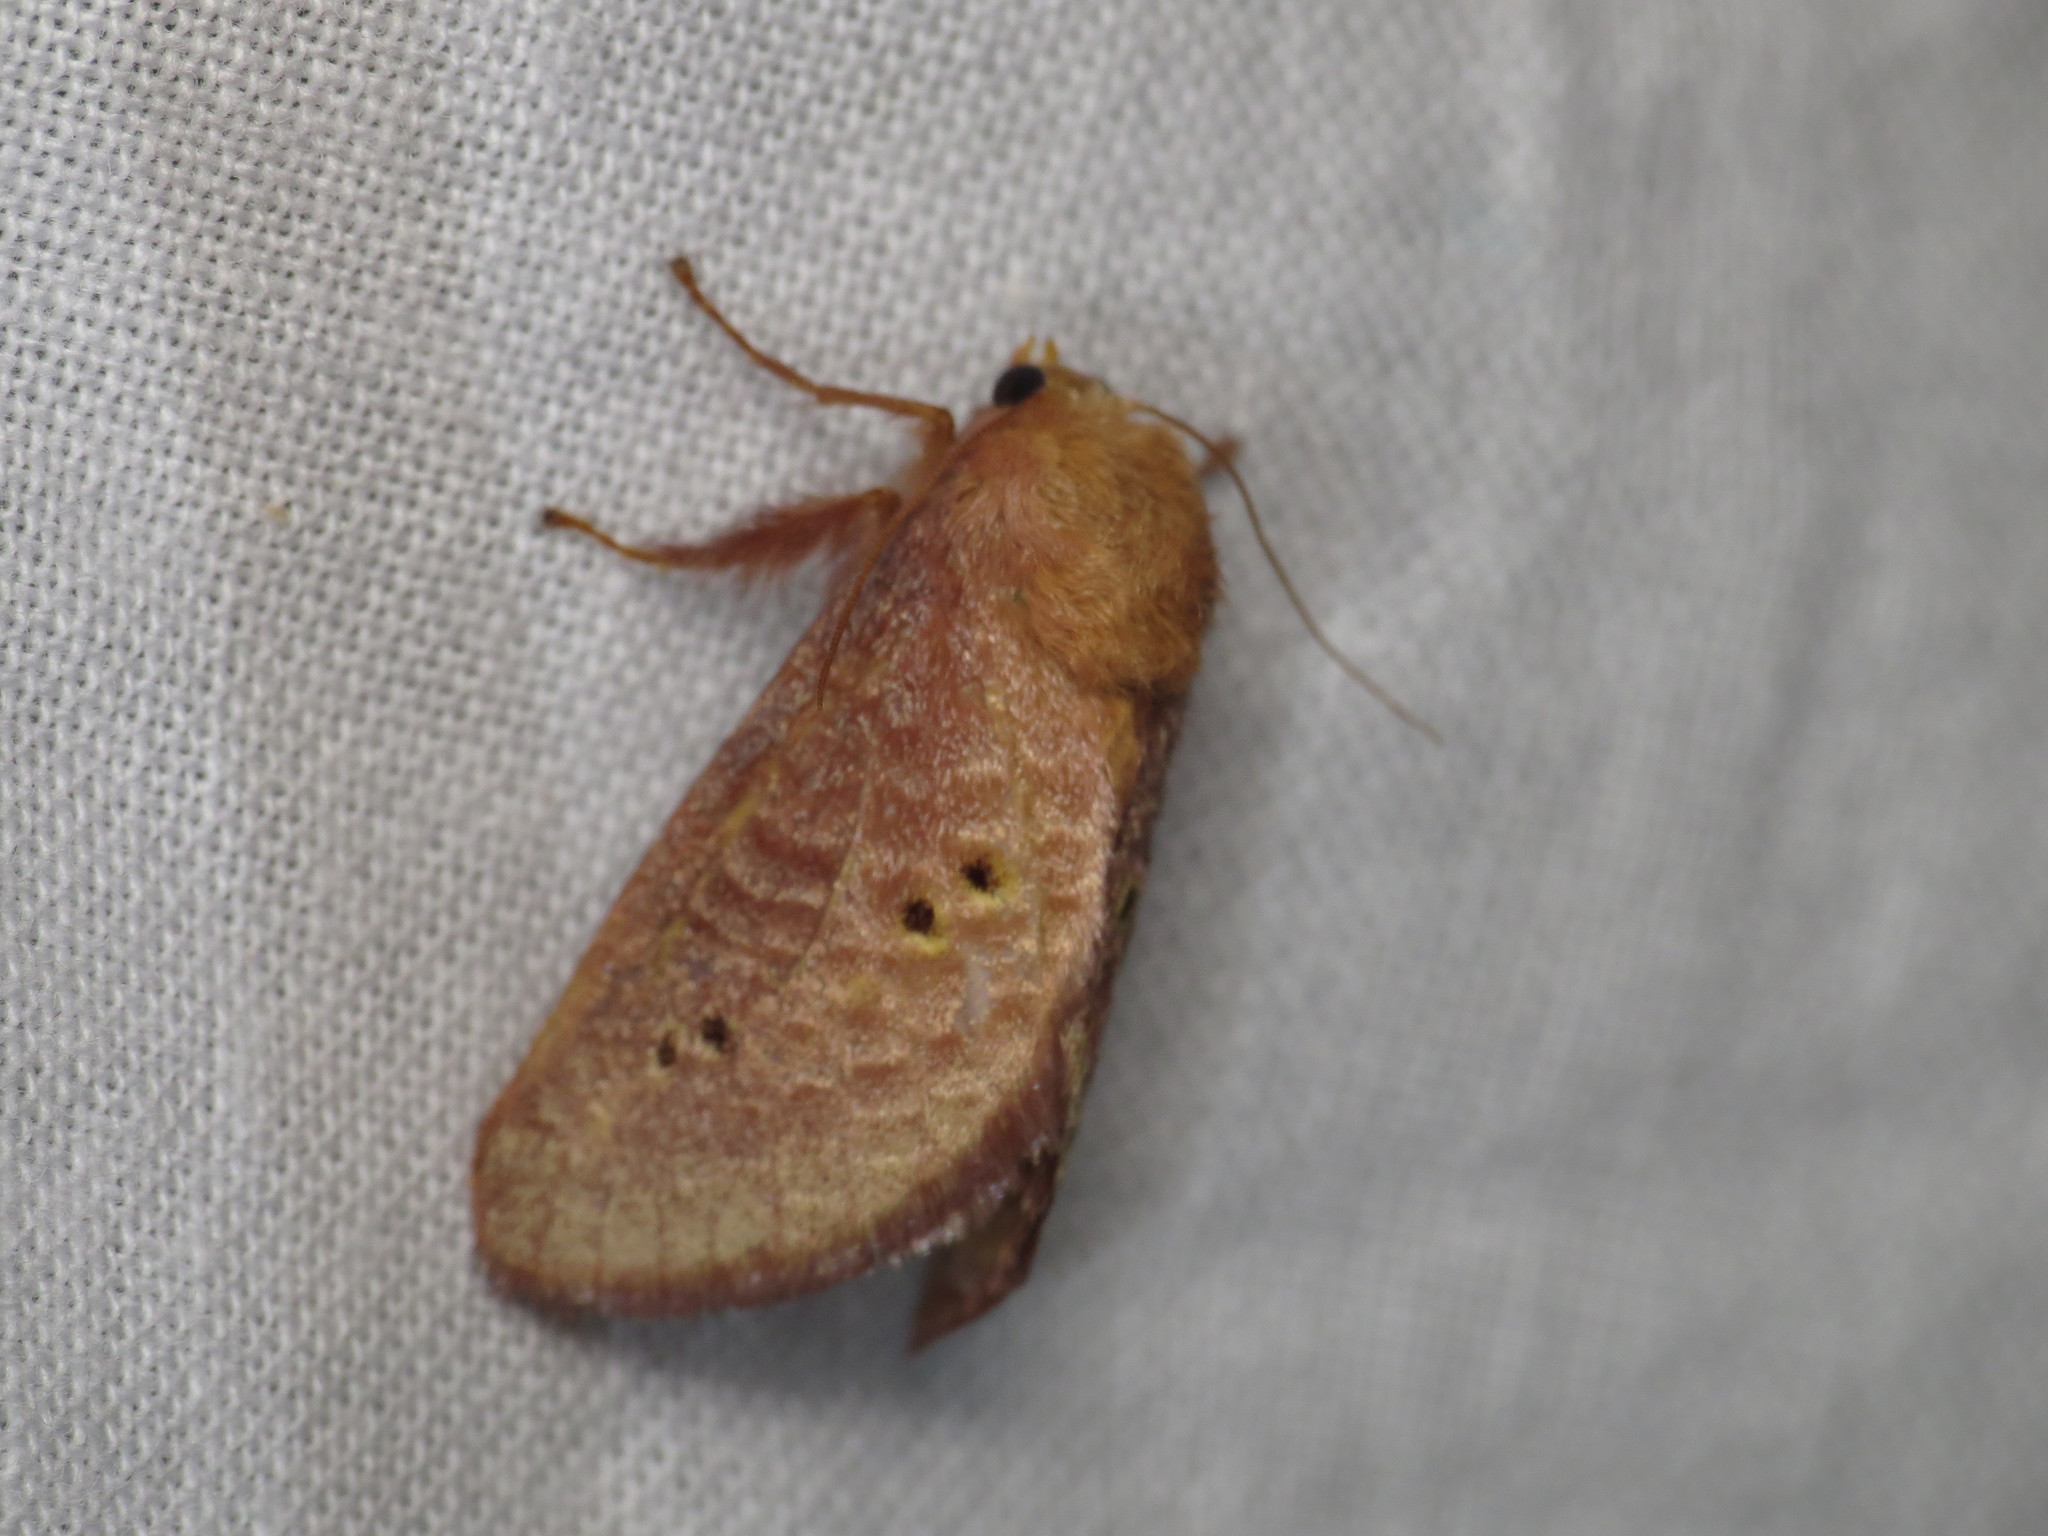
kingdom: Animalia
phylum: Arthropoda
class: Insecta
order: Lepidoptera
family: Limacodidae
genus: Doratifera
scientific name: Doratifera quadriguttata
